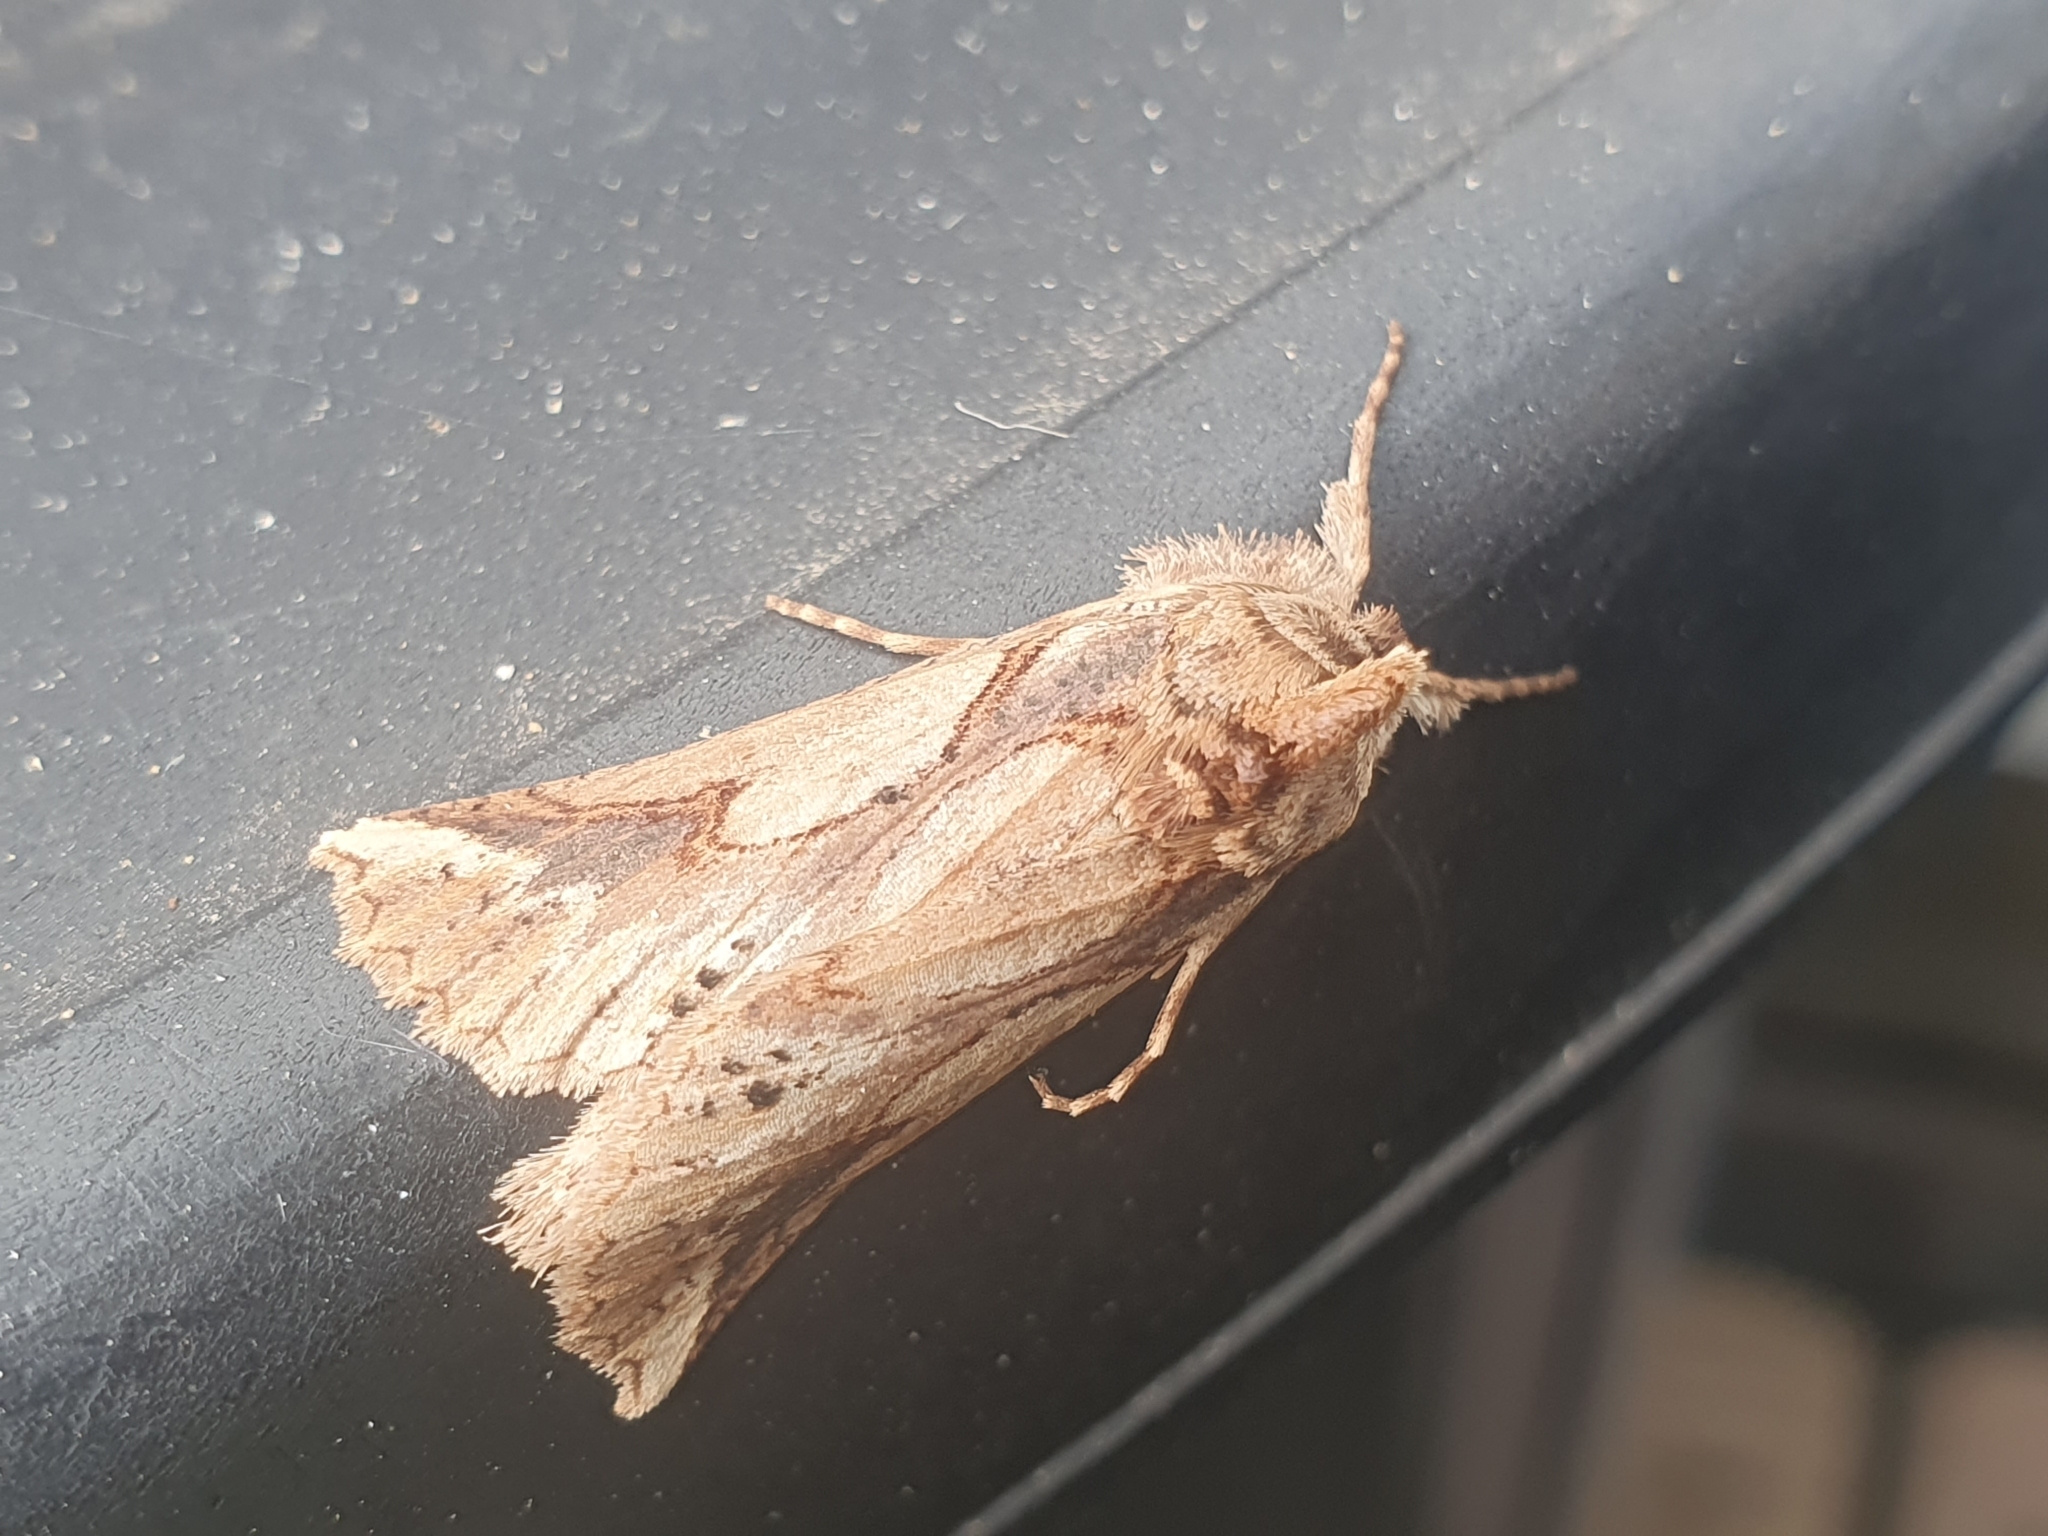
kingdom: Animalia
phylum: Arthropoda
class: Insecta
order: Lepidoptera
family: Geometridae
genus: Declana
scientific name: Declana
